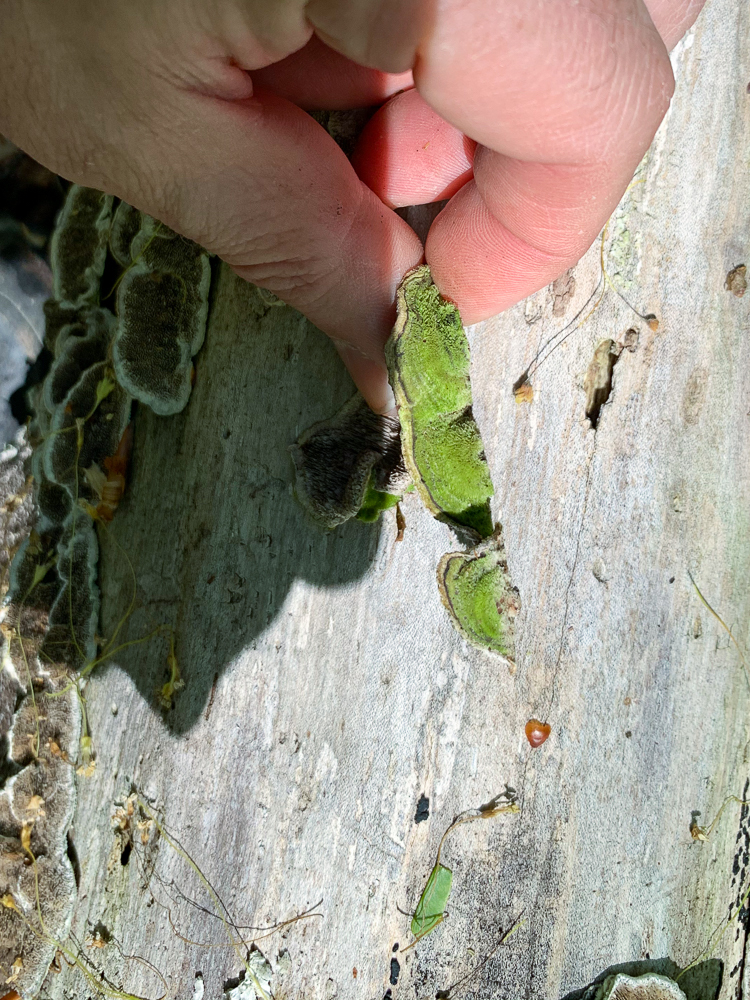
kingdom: Fungi
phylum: Basidiomycota
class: Agaricomycetes
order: Polyporales
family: Cerrenaceae
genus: Cerrena
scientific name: Cerrena unicolor
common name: Mossy maze polypore
